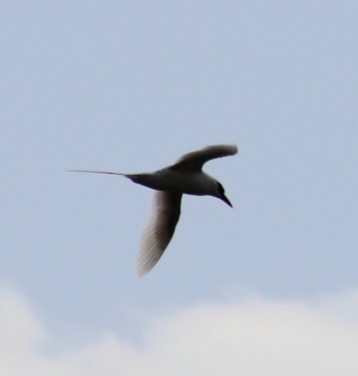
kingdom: Animalia
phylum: Chordata
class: Aves
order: Phaethontiformes
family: Phaethontidae
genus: Phaethon
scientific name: Phaethon rubricauda
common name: Red-tailed tropicbird
